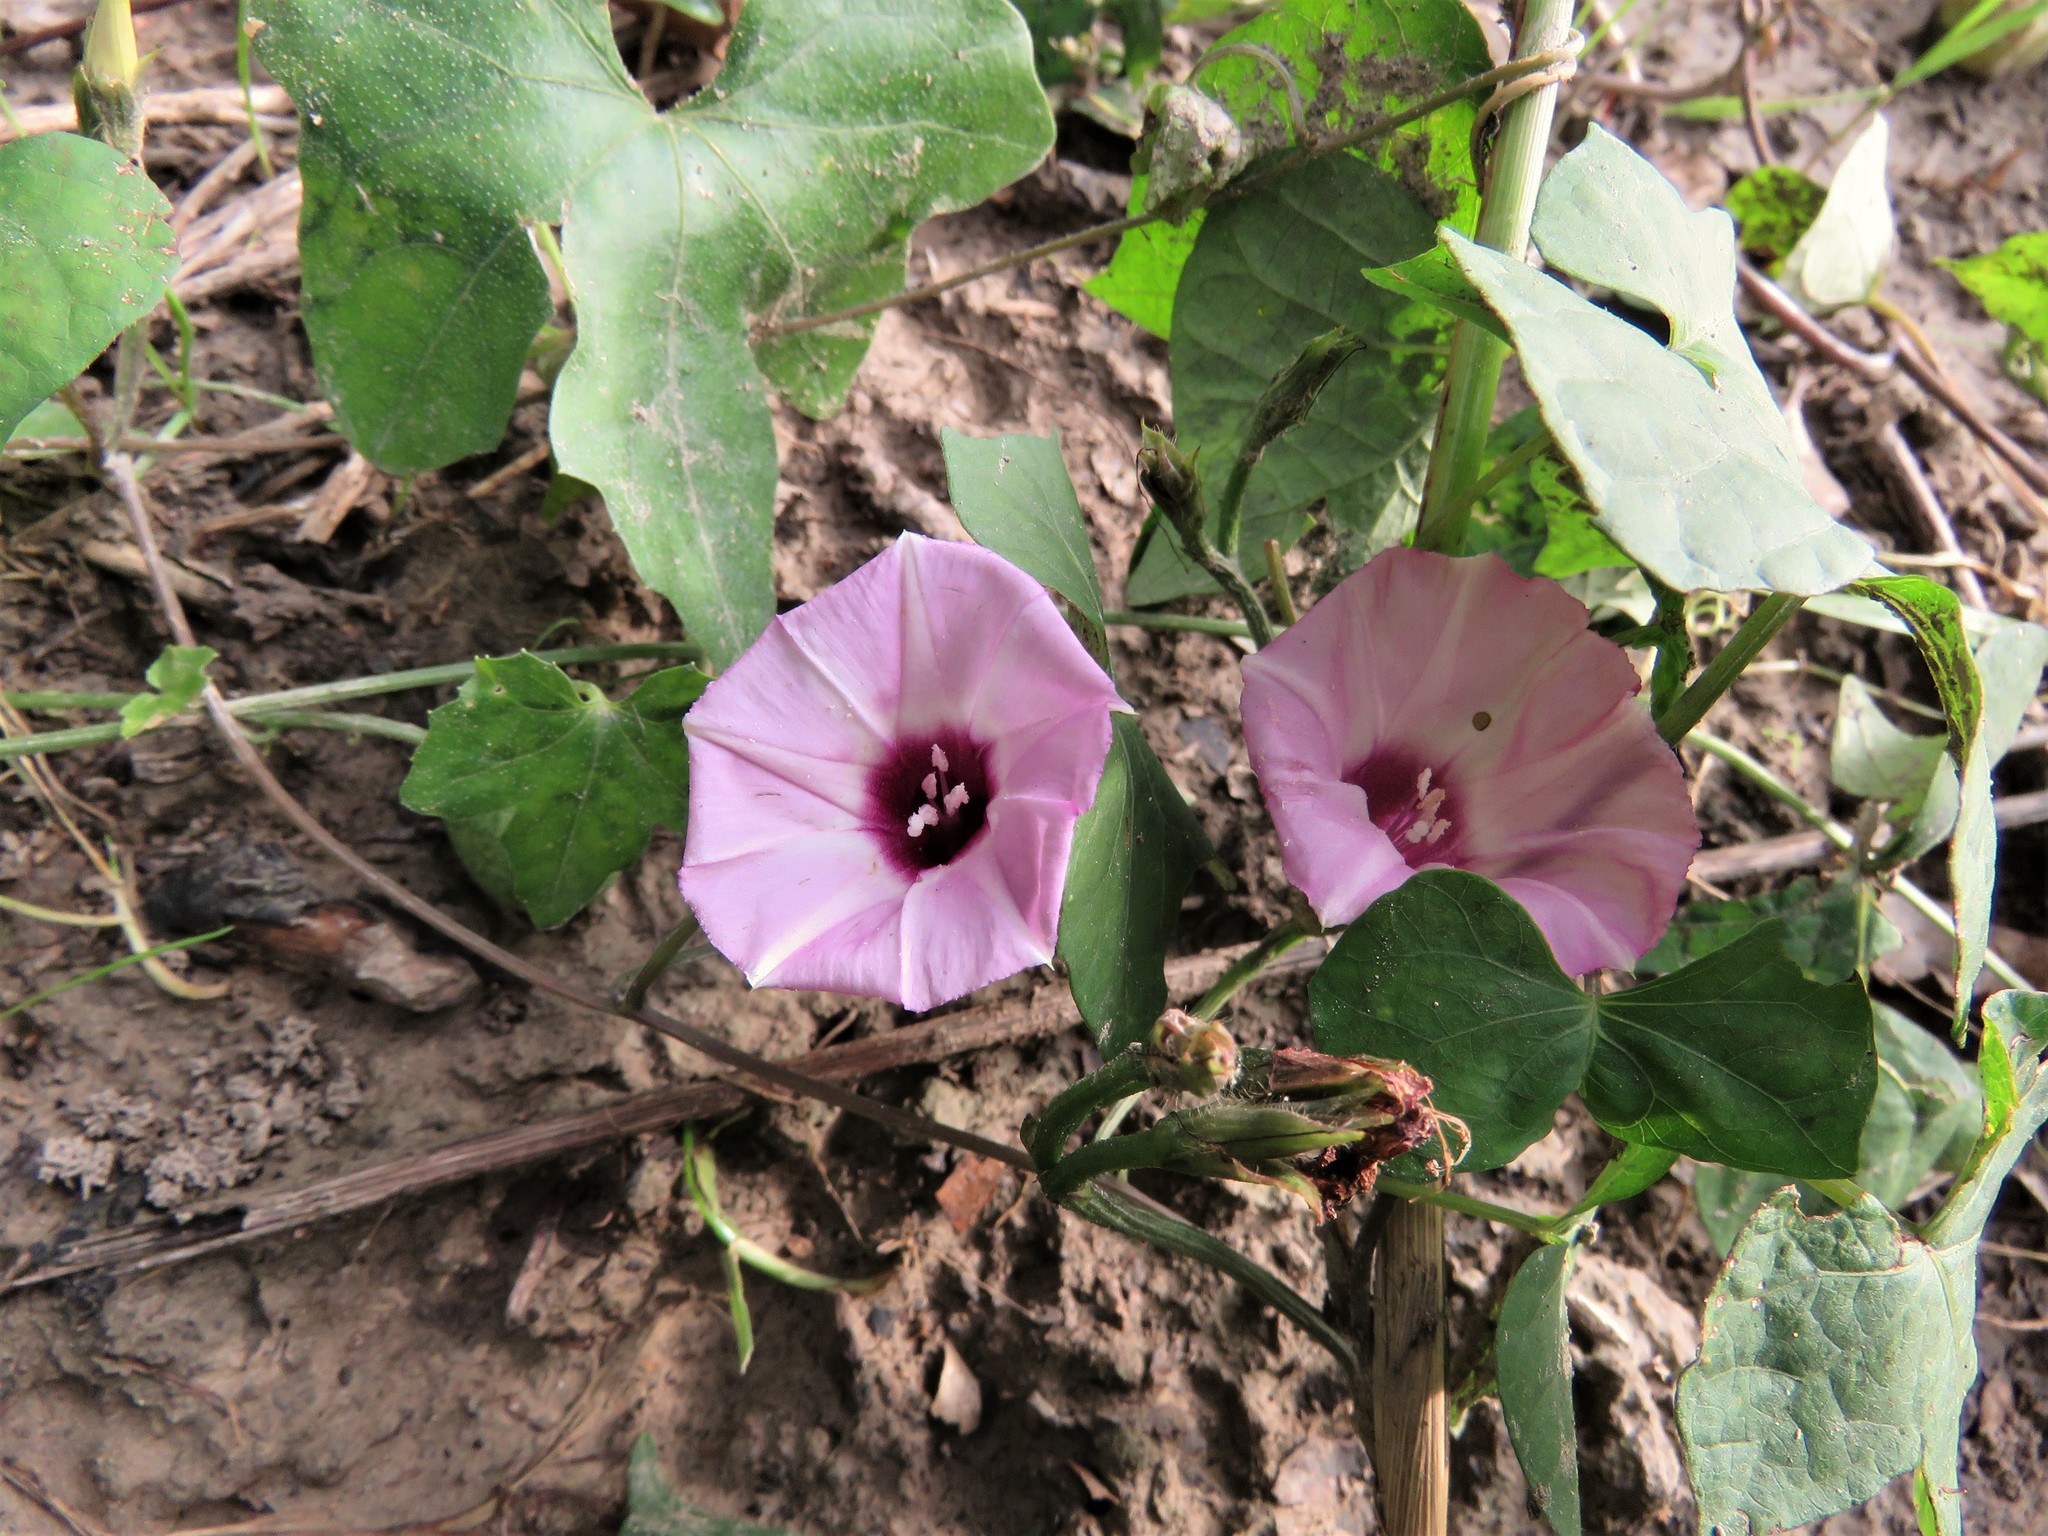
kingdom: Plantae
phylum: Tracheophyta
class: Magnoliopsida
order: Solanales
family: Convolvulaceae
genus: Ipomoea
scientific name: Ipomoea cordatotriloba
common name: Cotton morning glory
